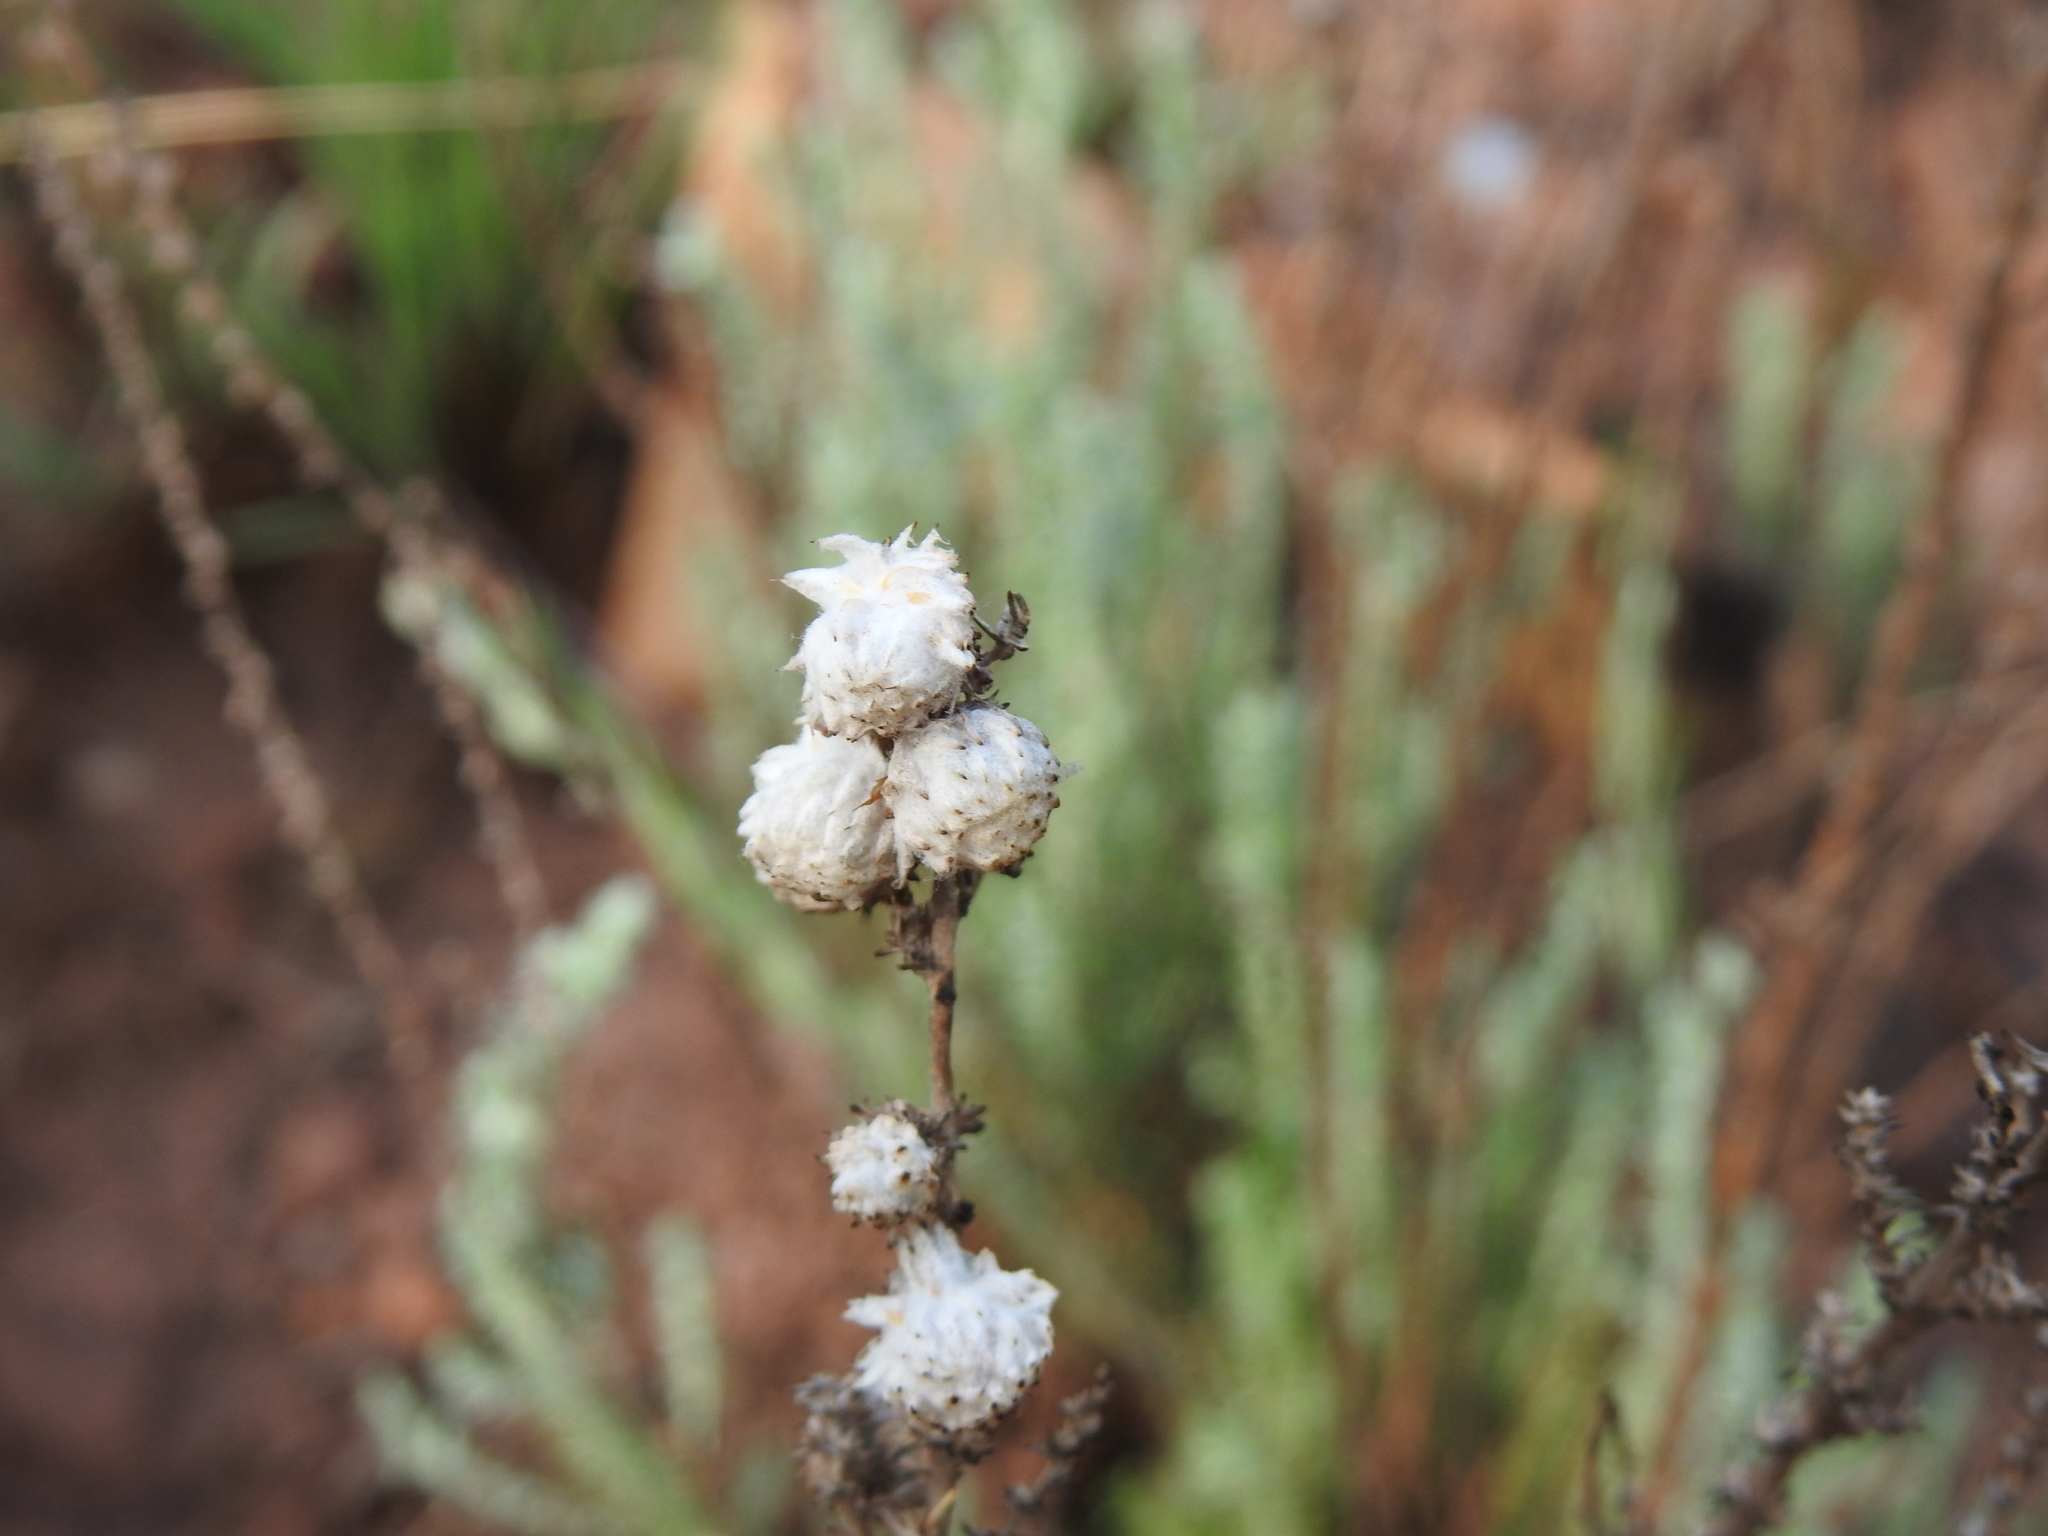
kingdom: Plantae
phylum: Tracheophyta
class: Magnoliopsida
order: Asterales
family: Asteraceae
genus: Seriphium
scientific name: Seriphium
